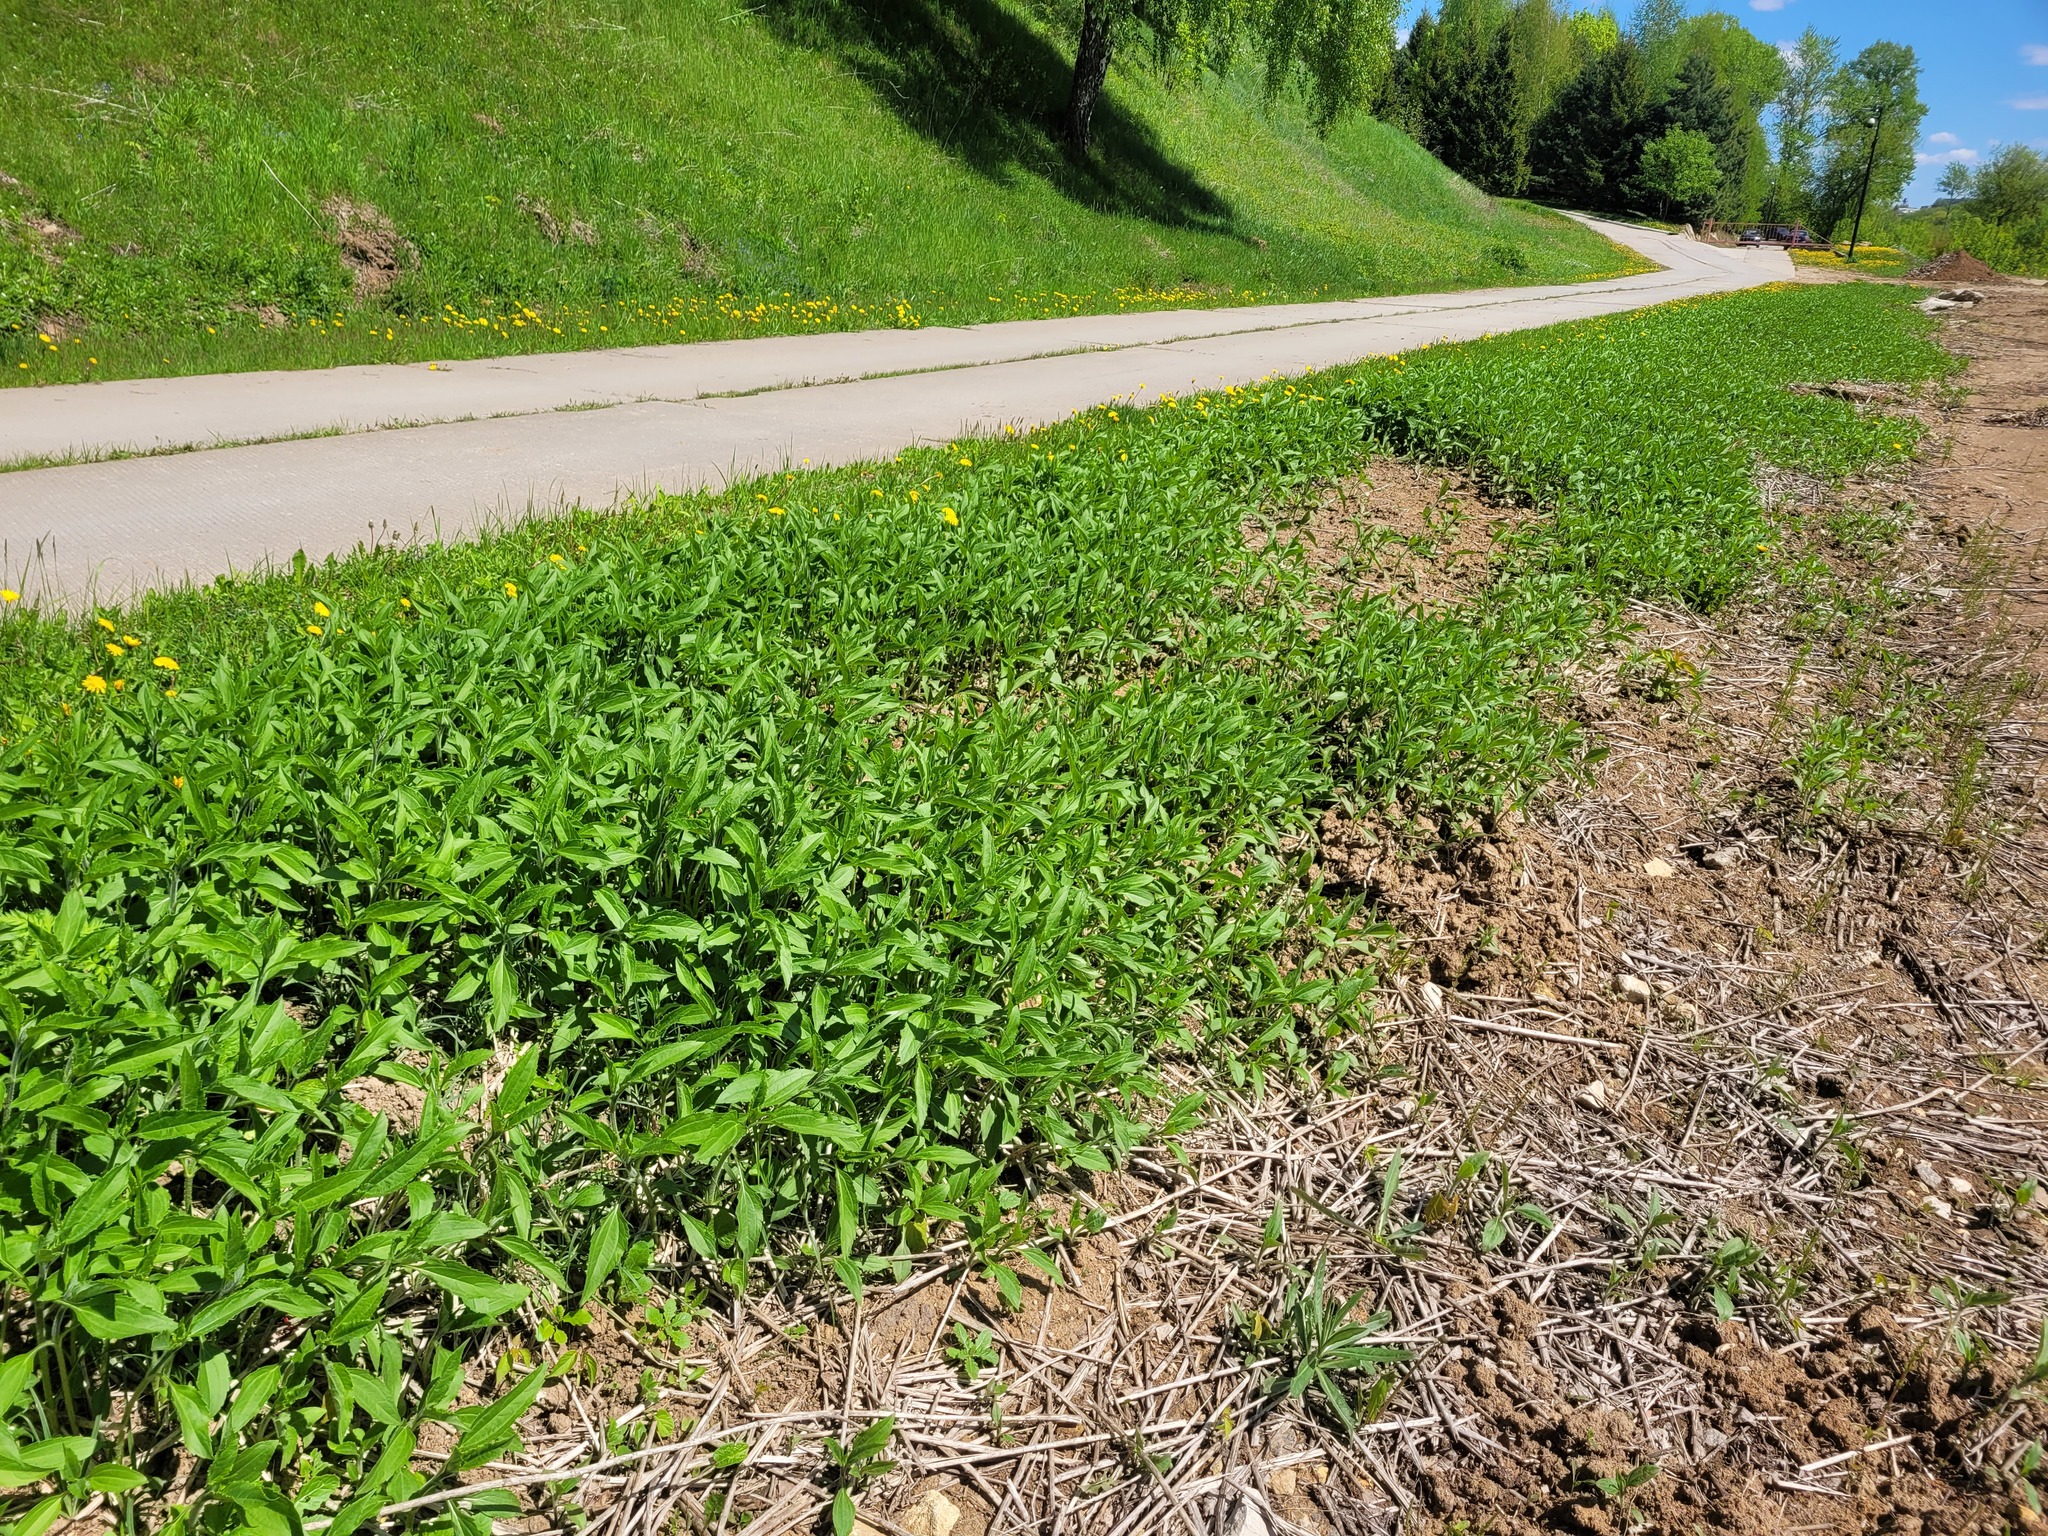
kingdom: Plantae
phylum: Tracheophyta
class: Magnoliopsida
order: Asterales
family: Asteraceae
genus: Helianthus
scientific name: Helianthus tuberosus
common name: Jerusalem artichoke
